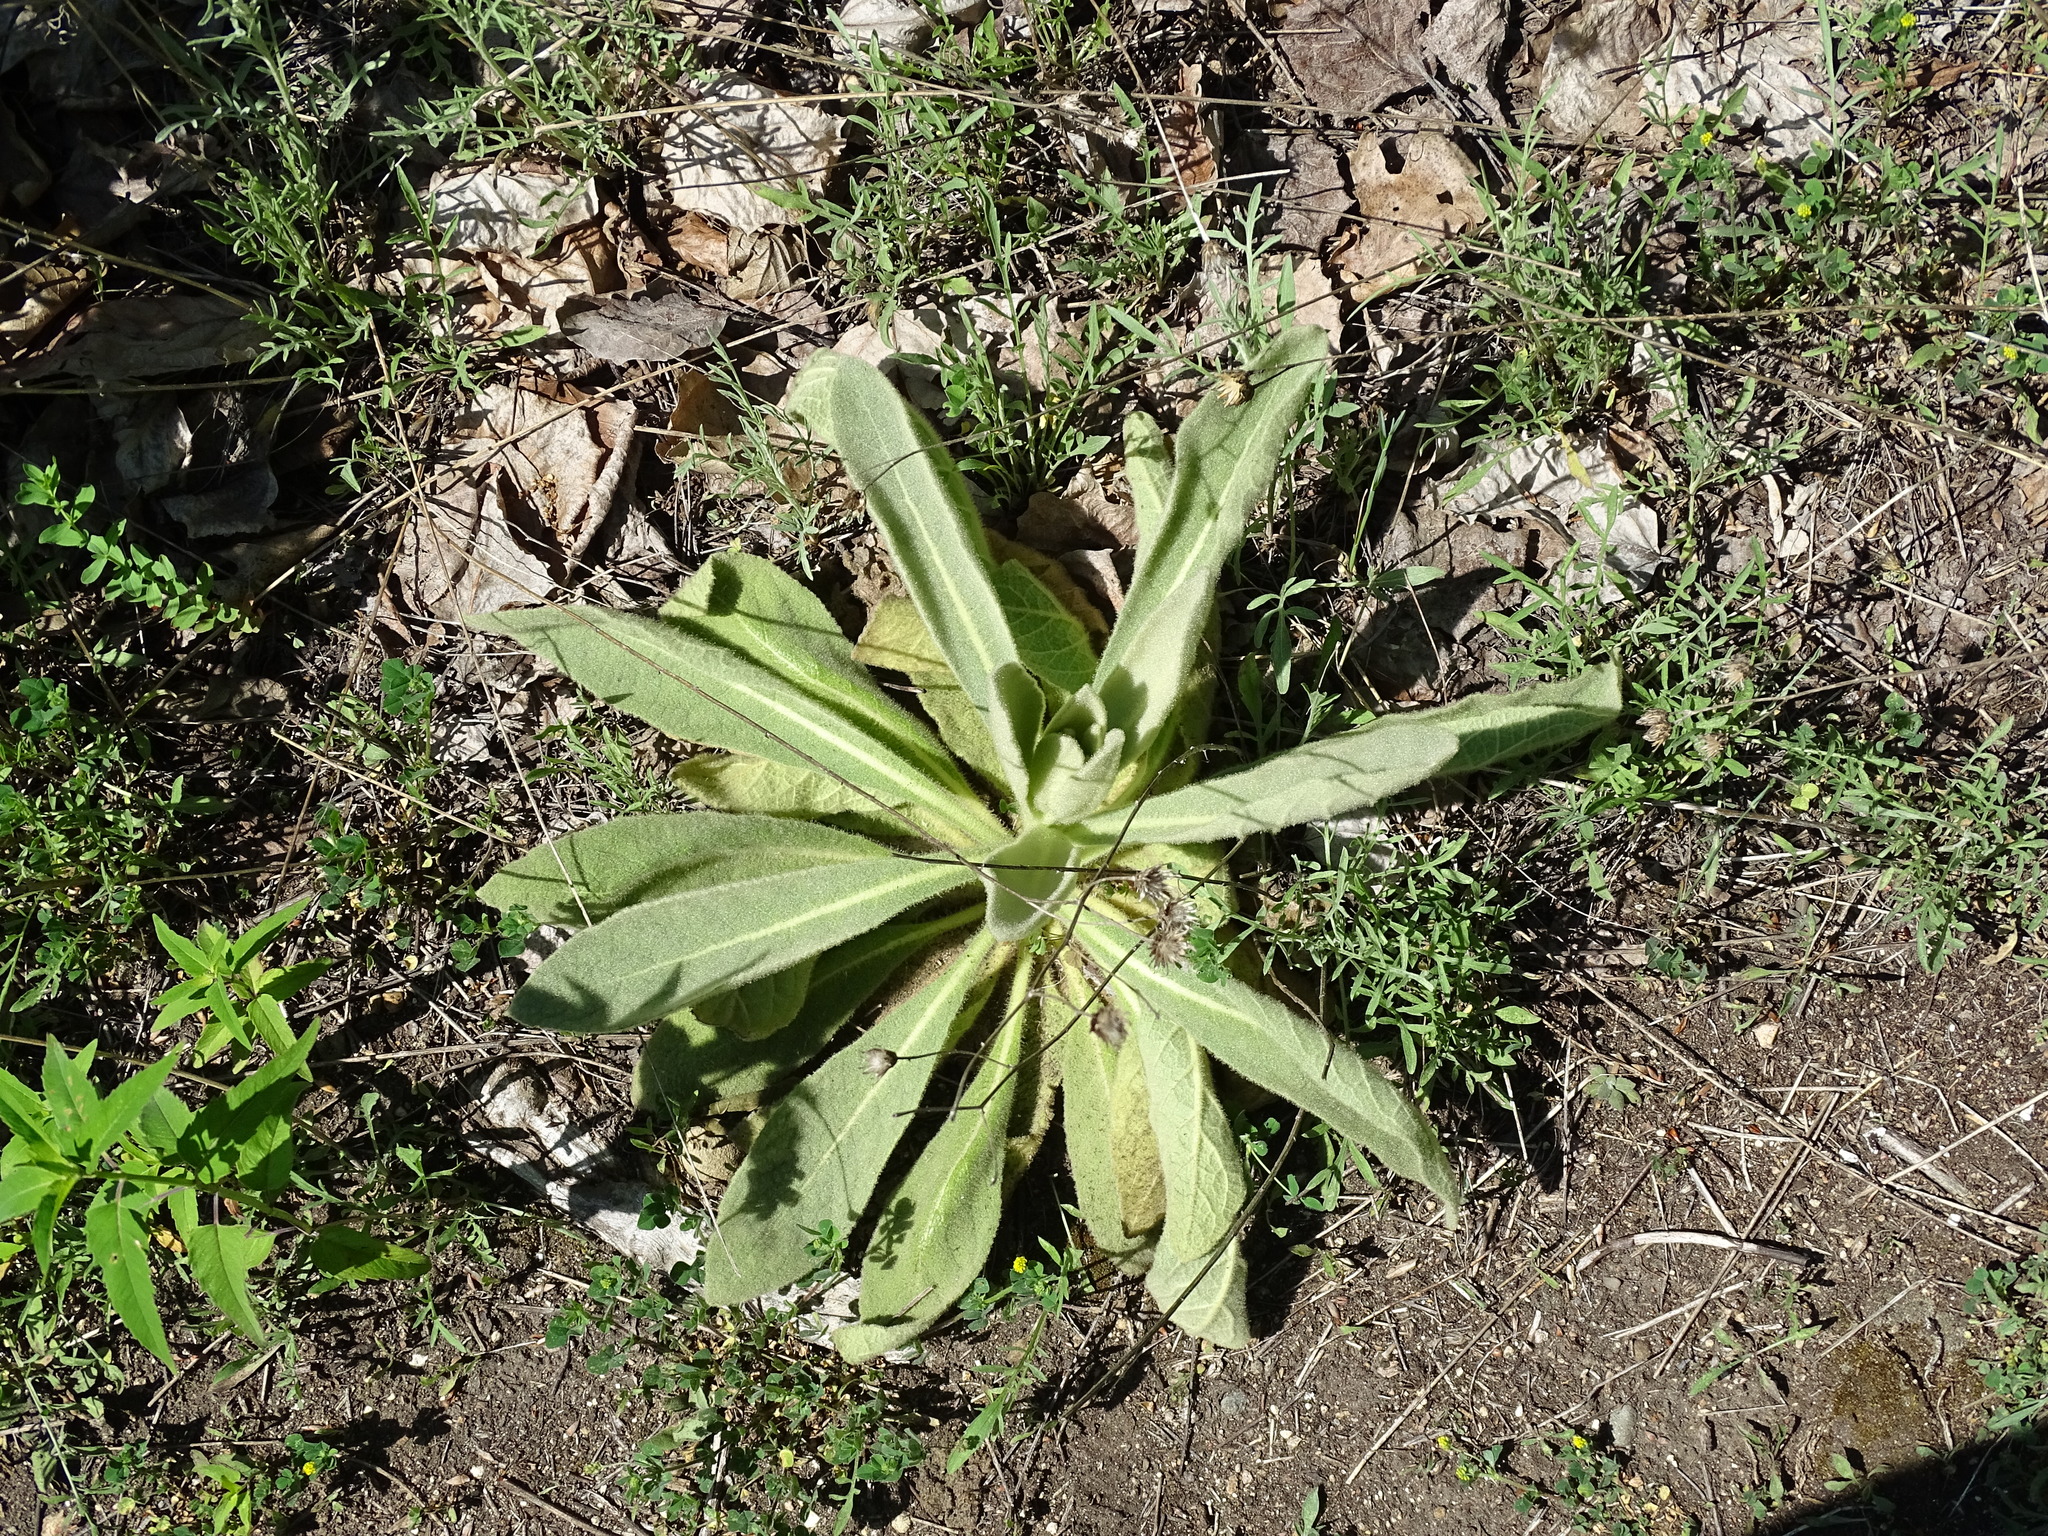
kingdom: Plantae
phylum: Tracheophyta
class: Magnoliopsida
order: Lamiales
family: Scrophulariaceae
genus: Verbascum
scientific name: Verbascum thapsus
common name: Common mullein
